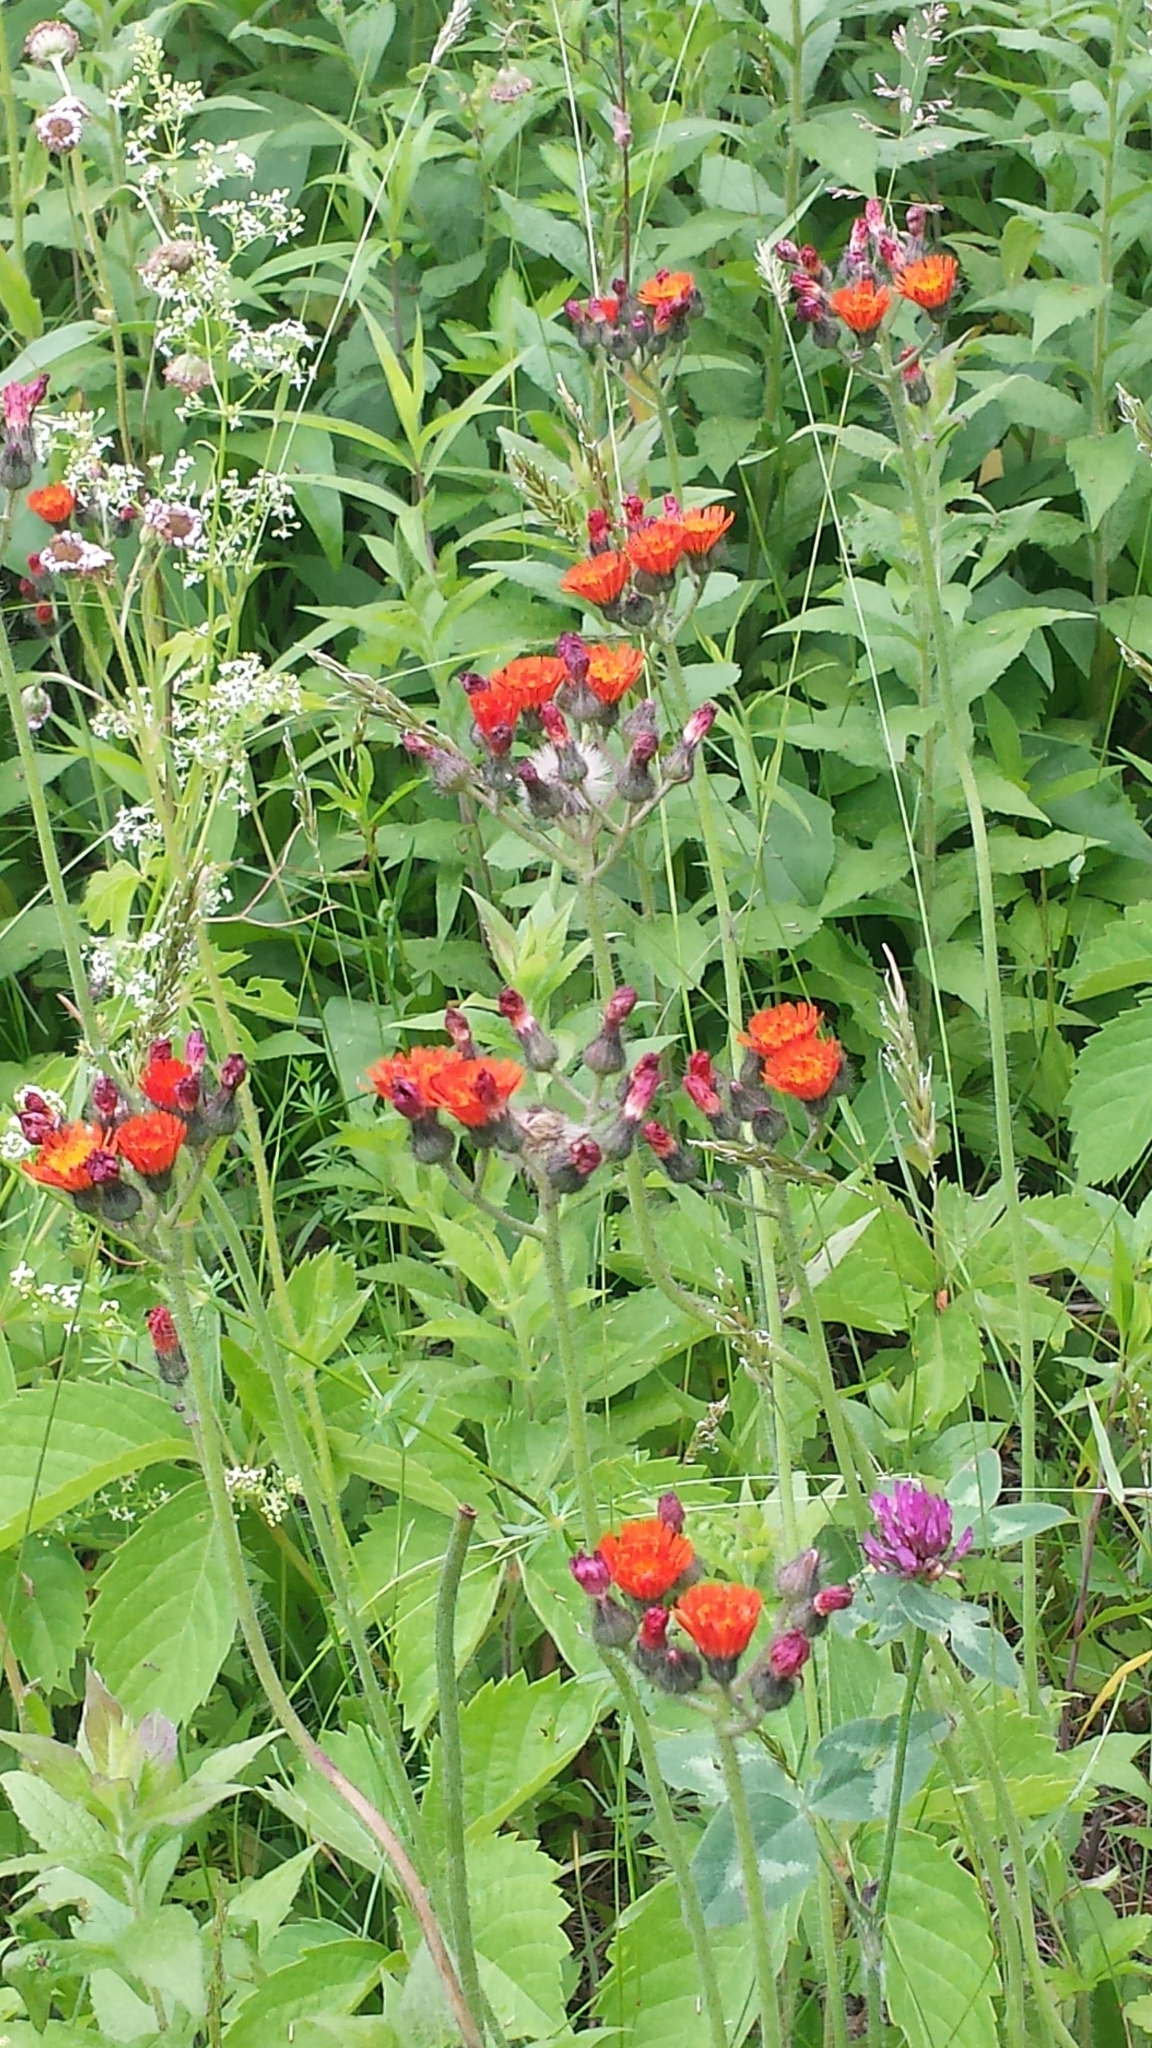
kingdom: Plantae
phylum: Tracheophyta
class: Magnoliopsida
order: Asterales
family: Asteraceae
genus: Pilosella
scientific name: Pilosella aurantiaca
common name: Fox-and-cubs
